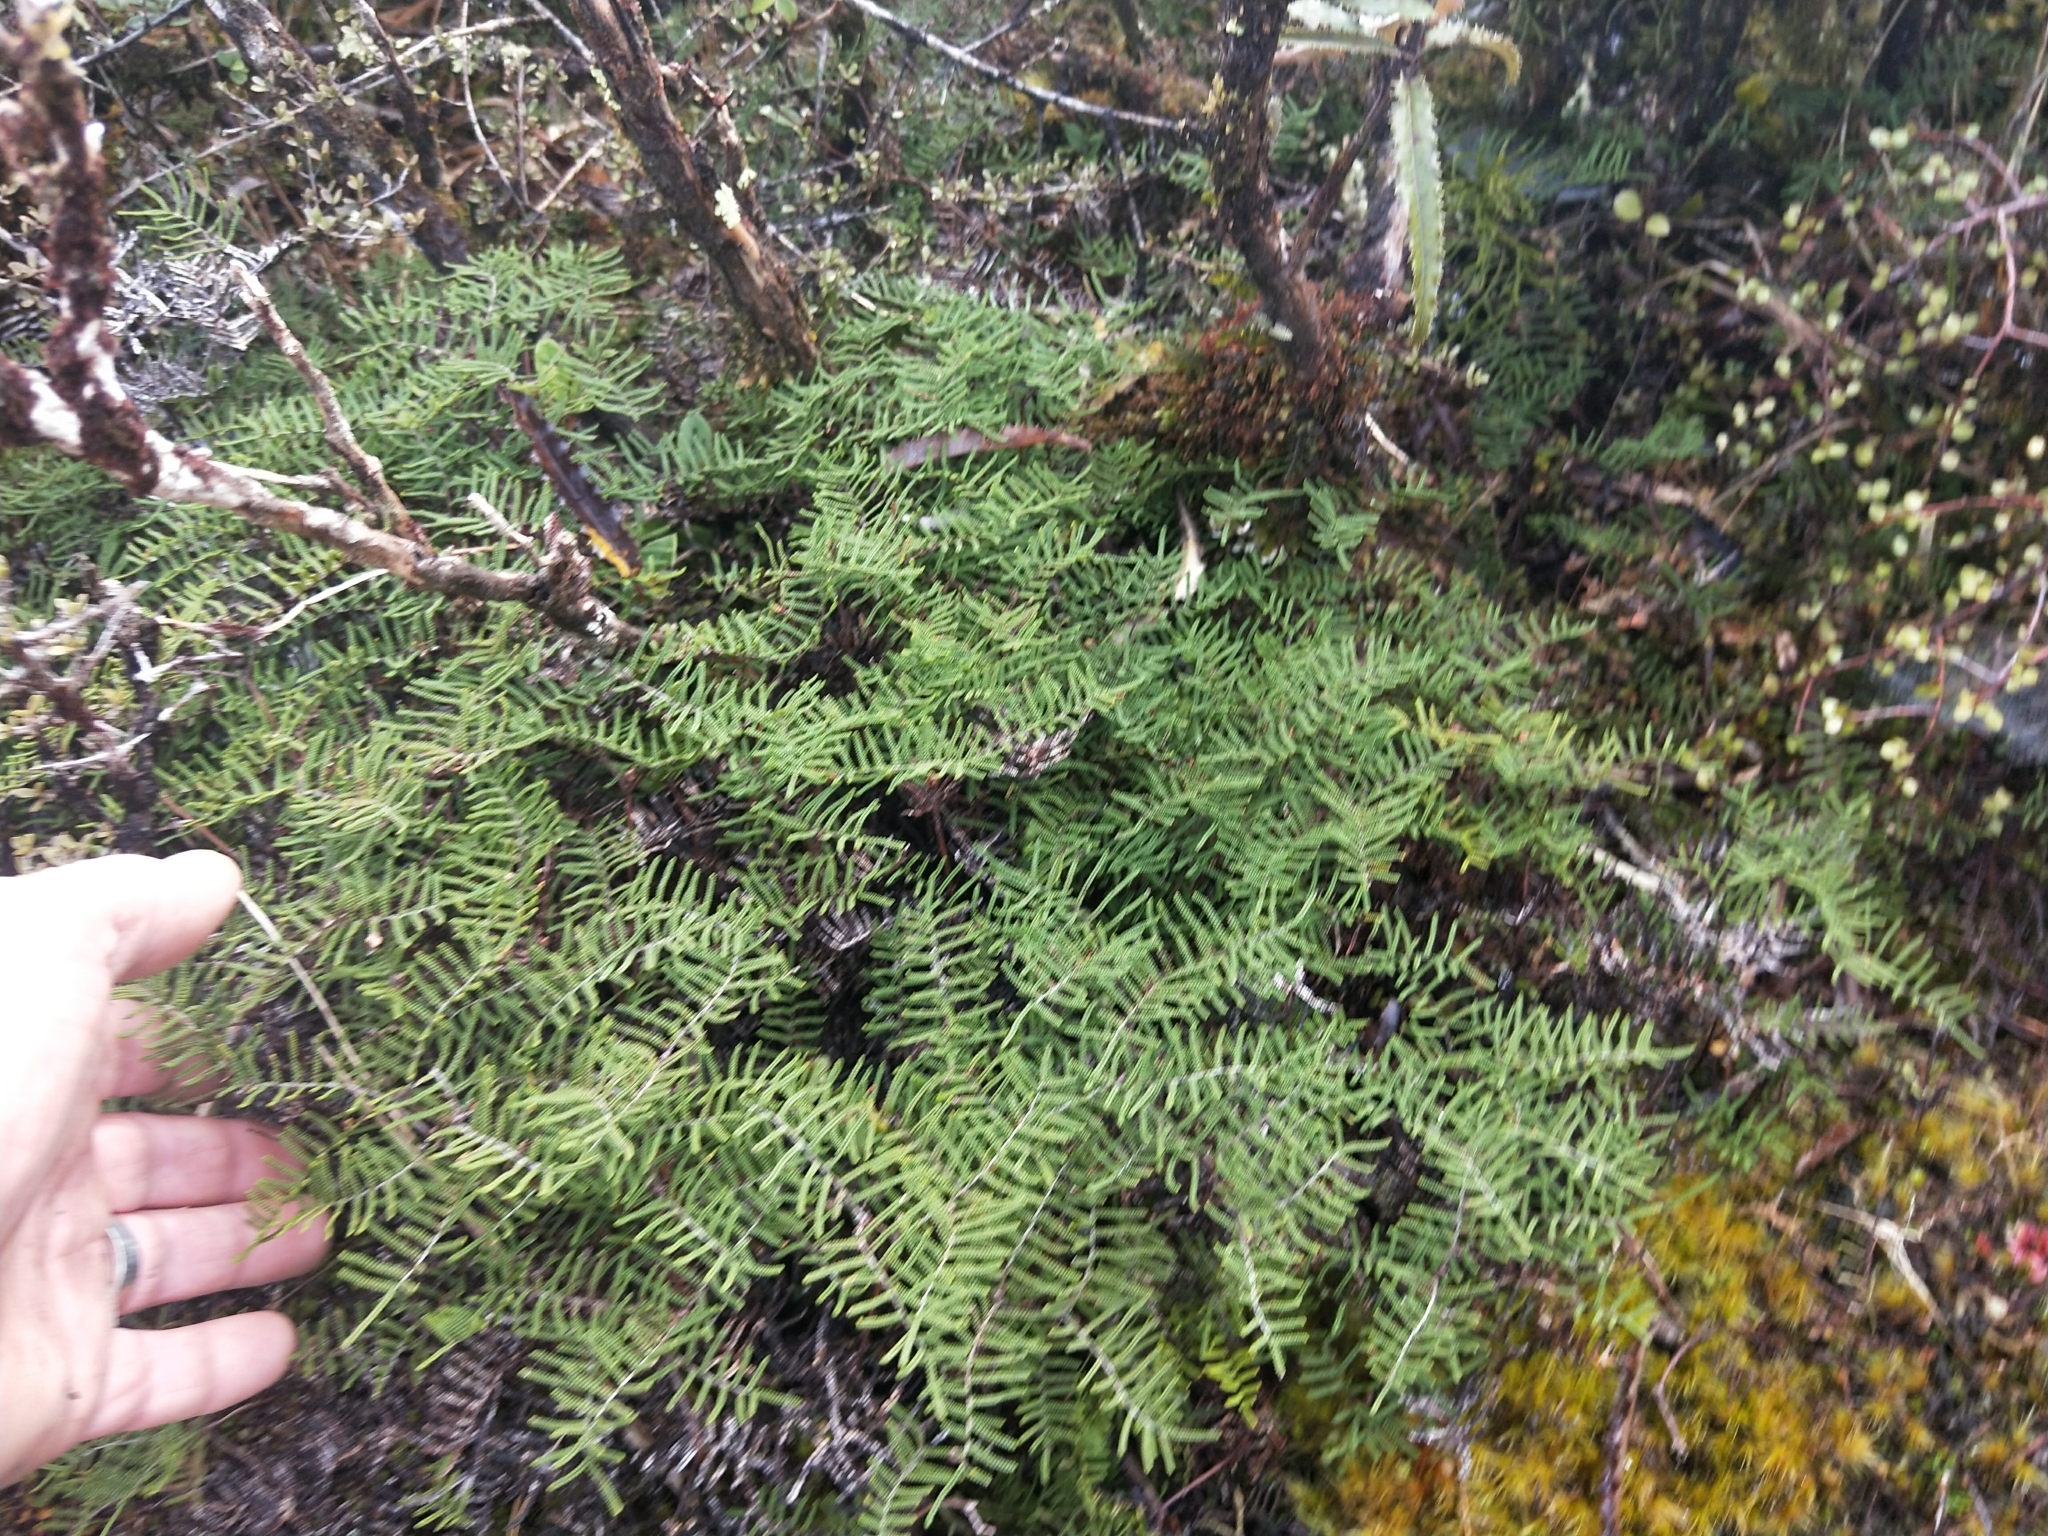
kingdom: Plantae
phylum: Tracheophyta
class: Polypodiopsida
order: Gleicheniales
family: Gleicheniaceae
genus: Gleichenia
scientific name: Gleichenia alpina
